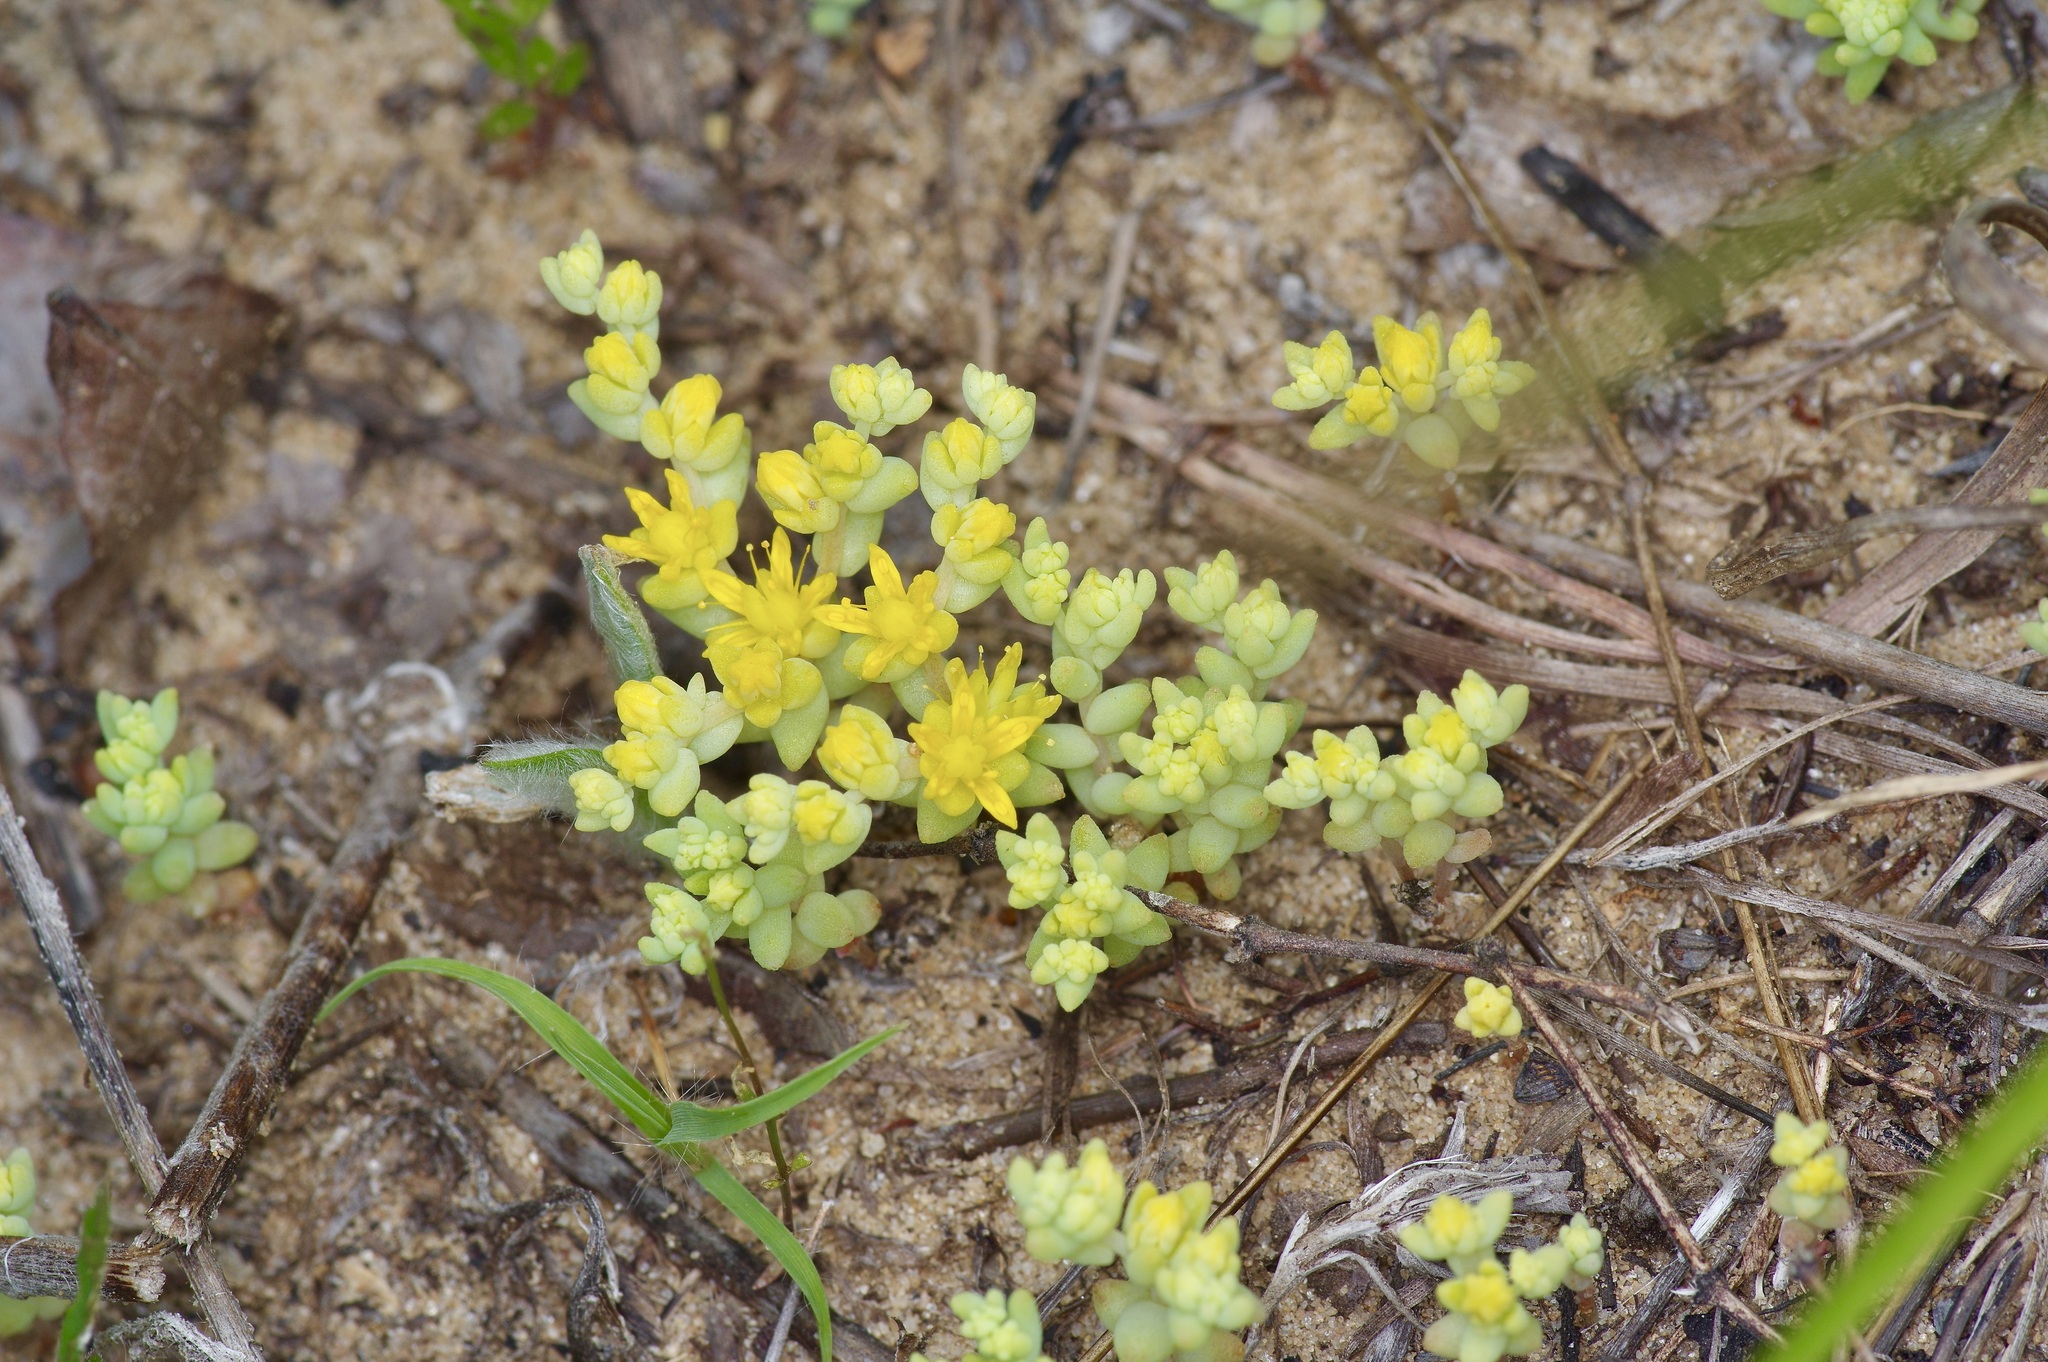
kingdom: Plantae
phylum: Tracheophyta
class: Magnoliopsida
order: Saxifragales
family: Crassulaceae
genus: Sedum
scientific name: Sedum nuttallii
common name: Yellow stonecrop
